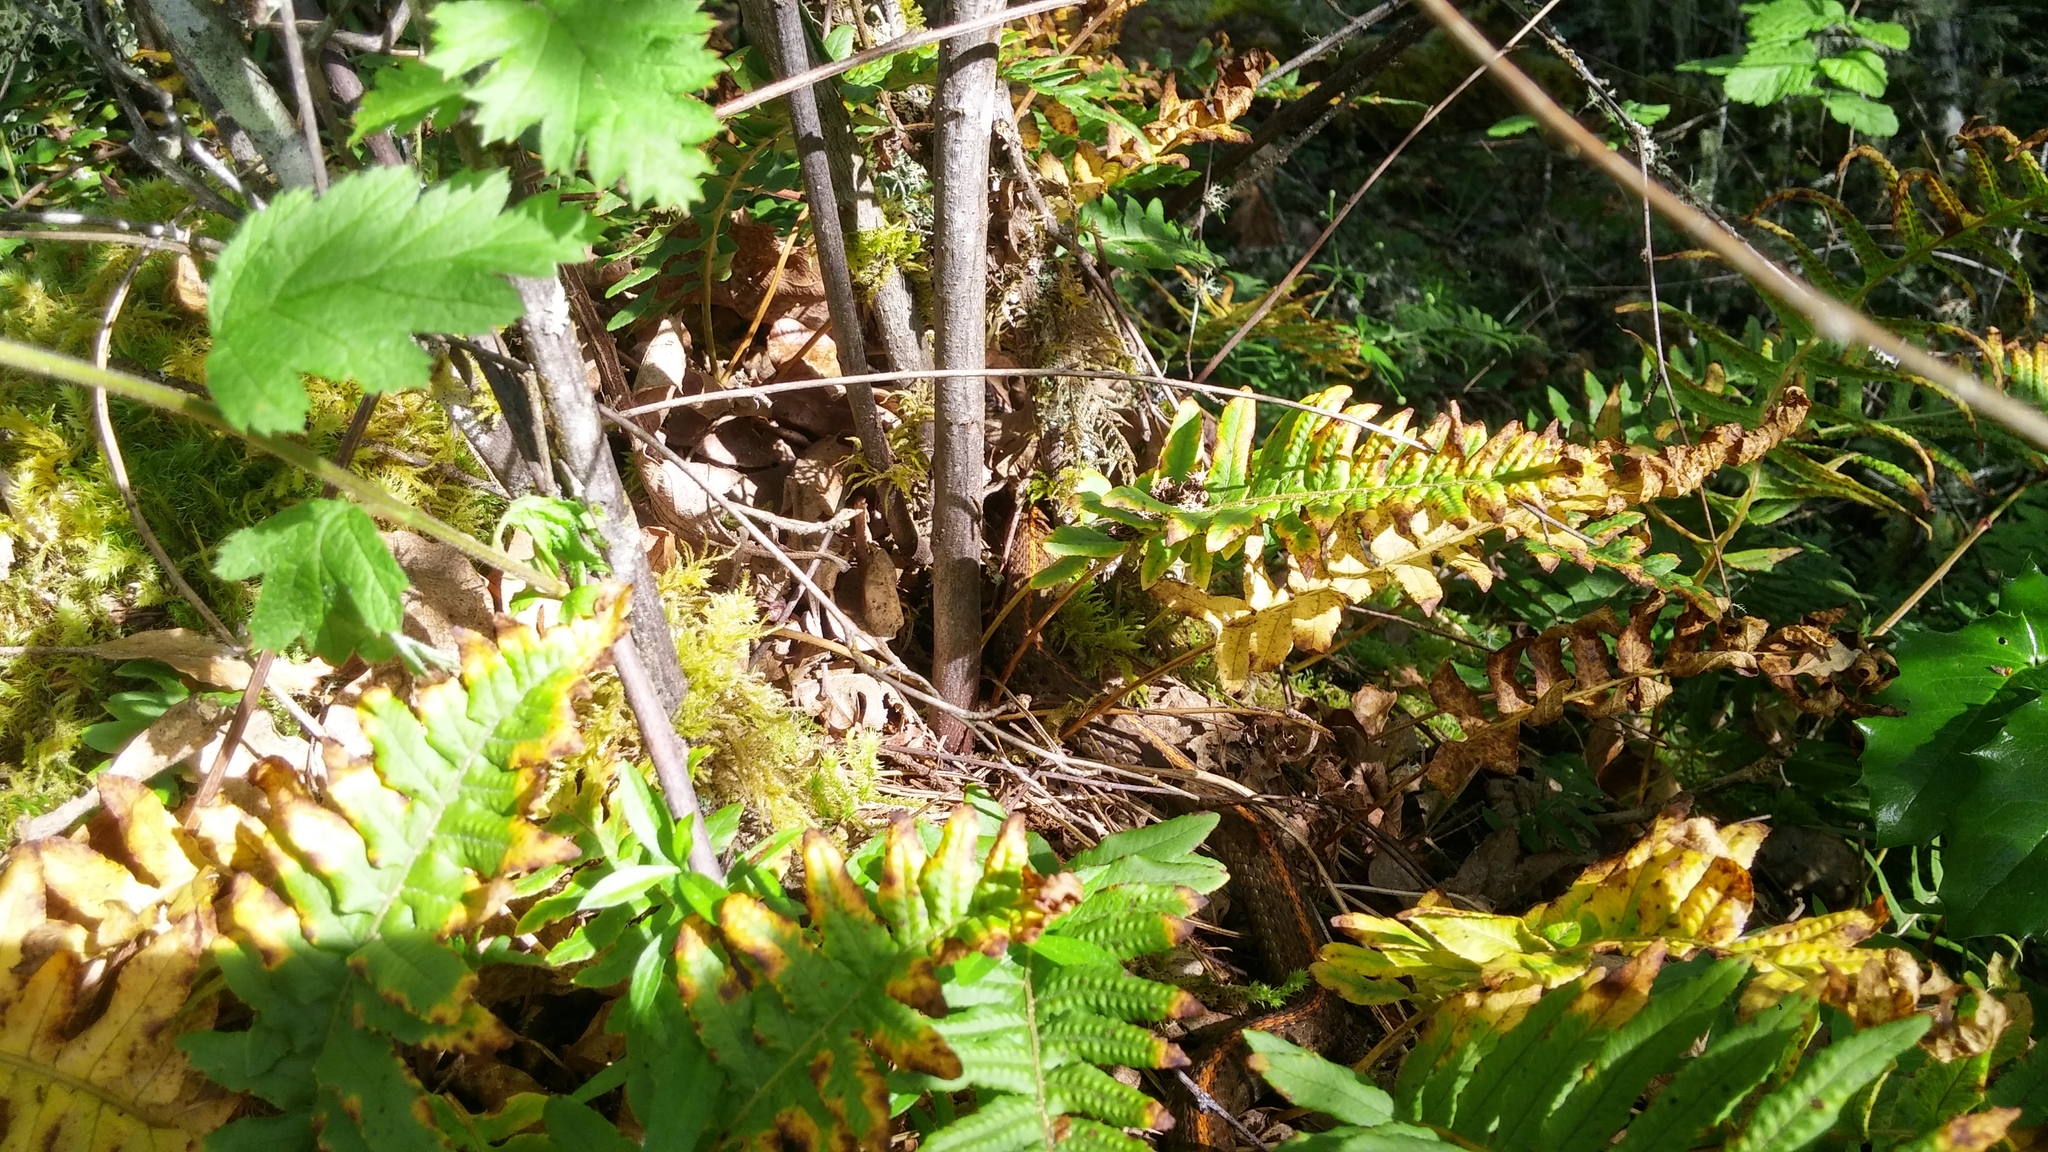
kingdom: Plantae
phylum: Tracheophyta
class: Polypodiopsida
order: Polypodiales
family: Polypodiaceae
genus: Polypodium
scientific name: Polypodium glycyrrhiza
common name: Licorice fern
